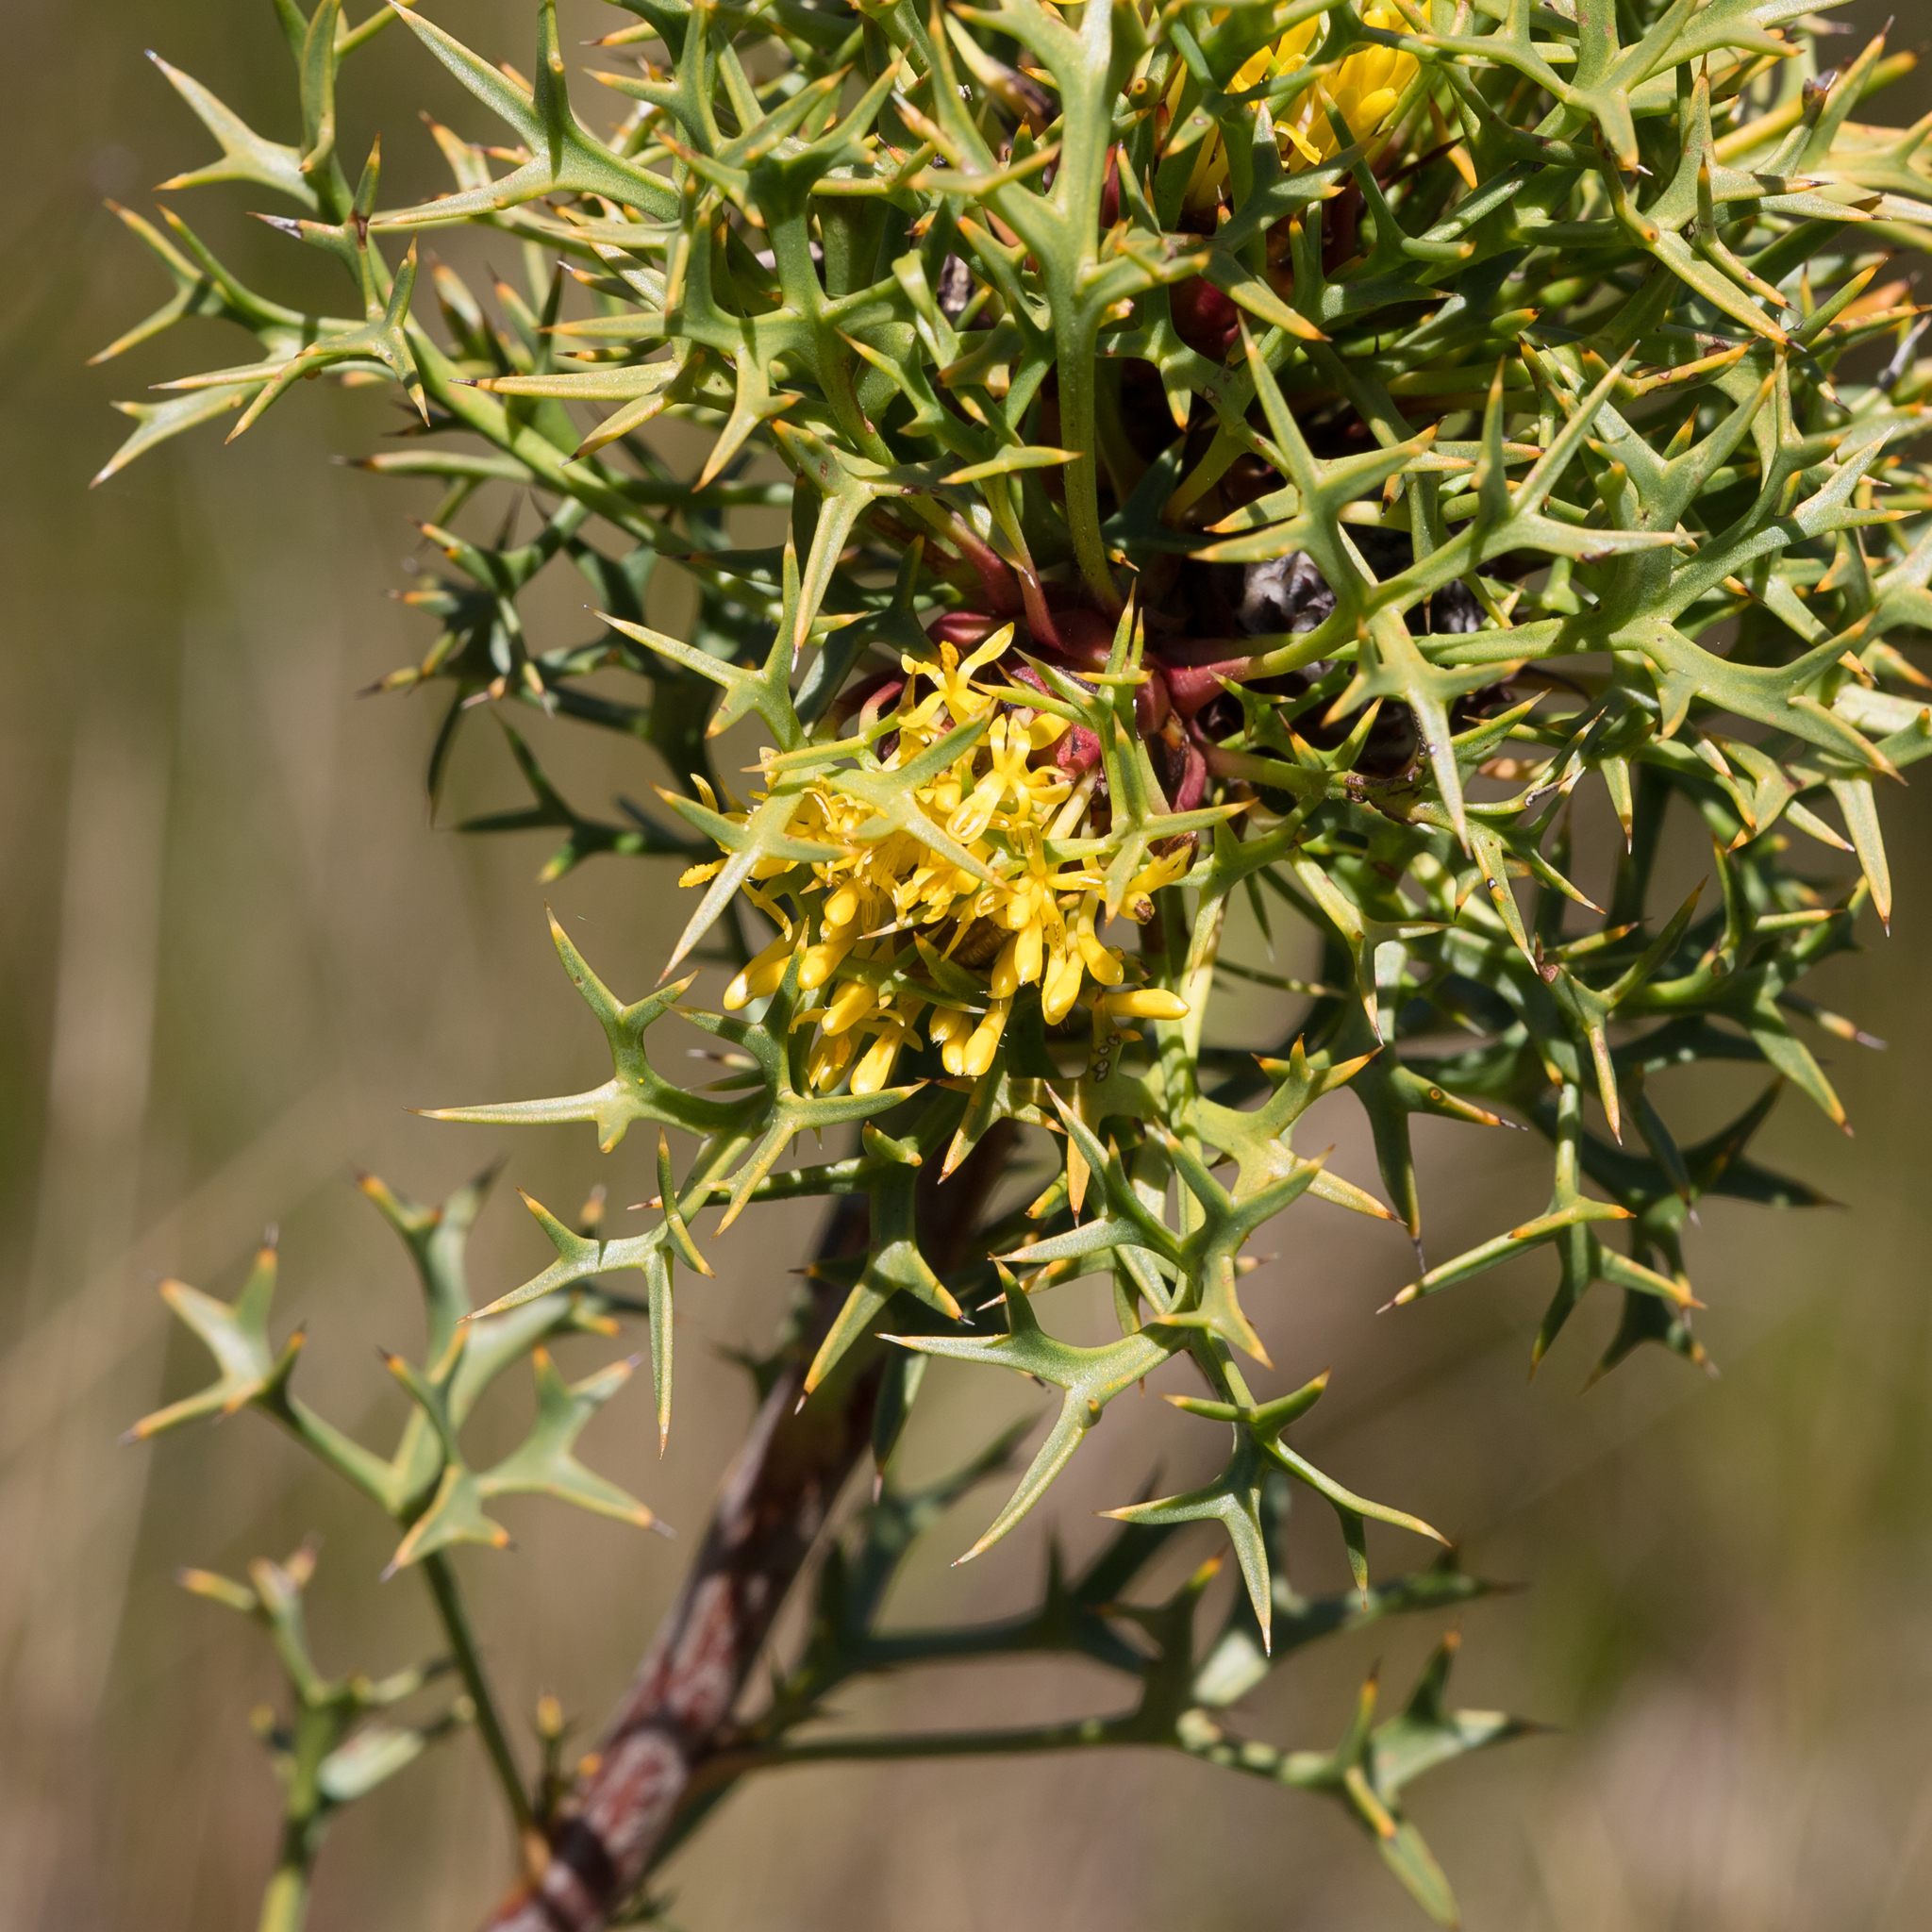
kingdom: Plantae
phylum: Tracheophyta
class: Magnoliopsida
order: Proteales
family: Proteaceae
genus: Isopogon
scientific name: Isopogon ceratophyllus
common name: Horny cone-bush
